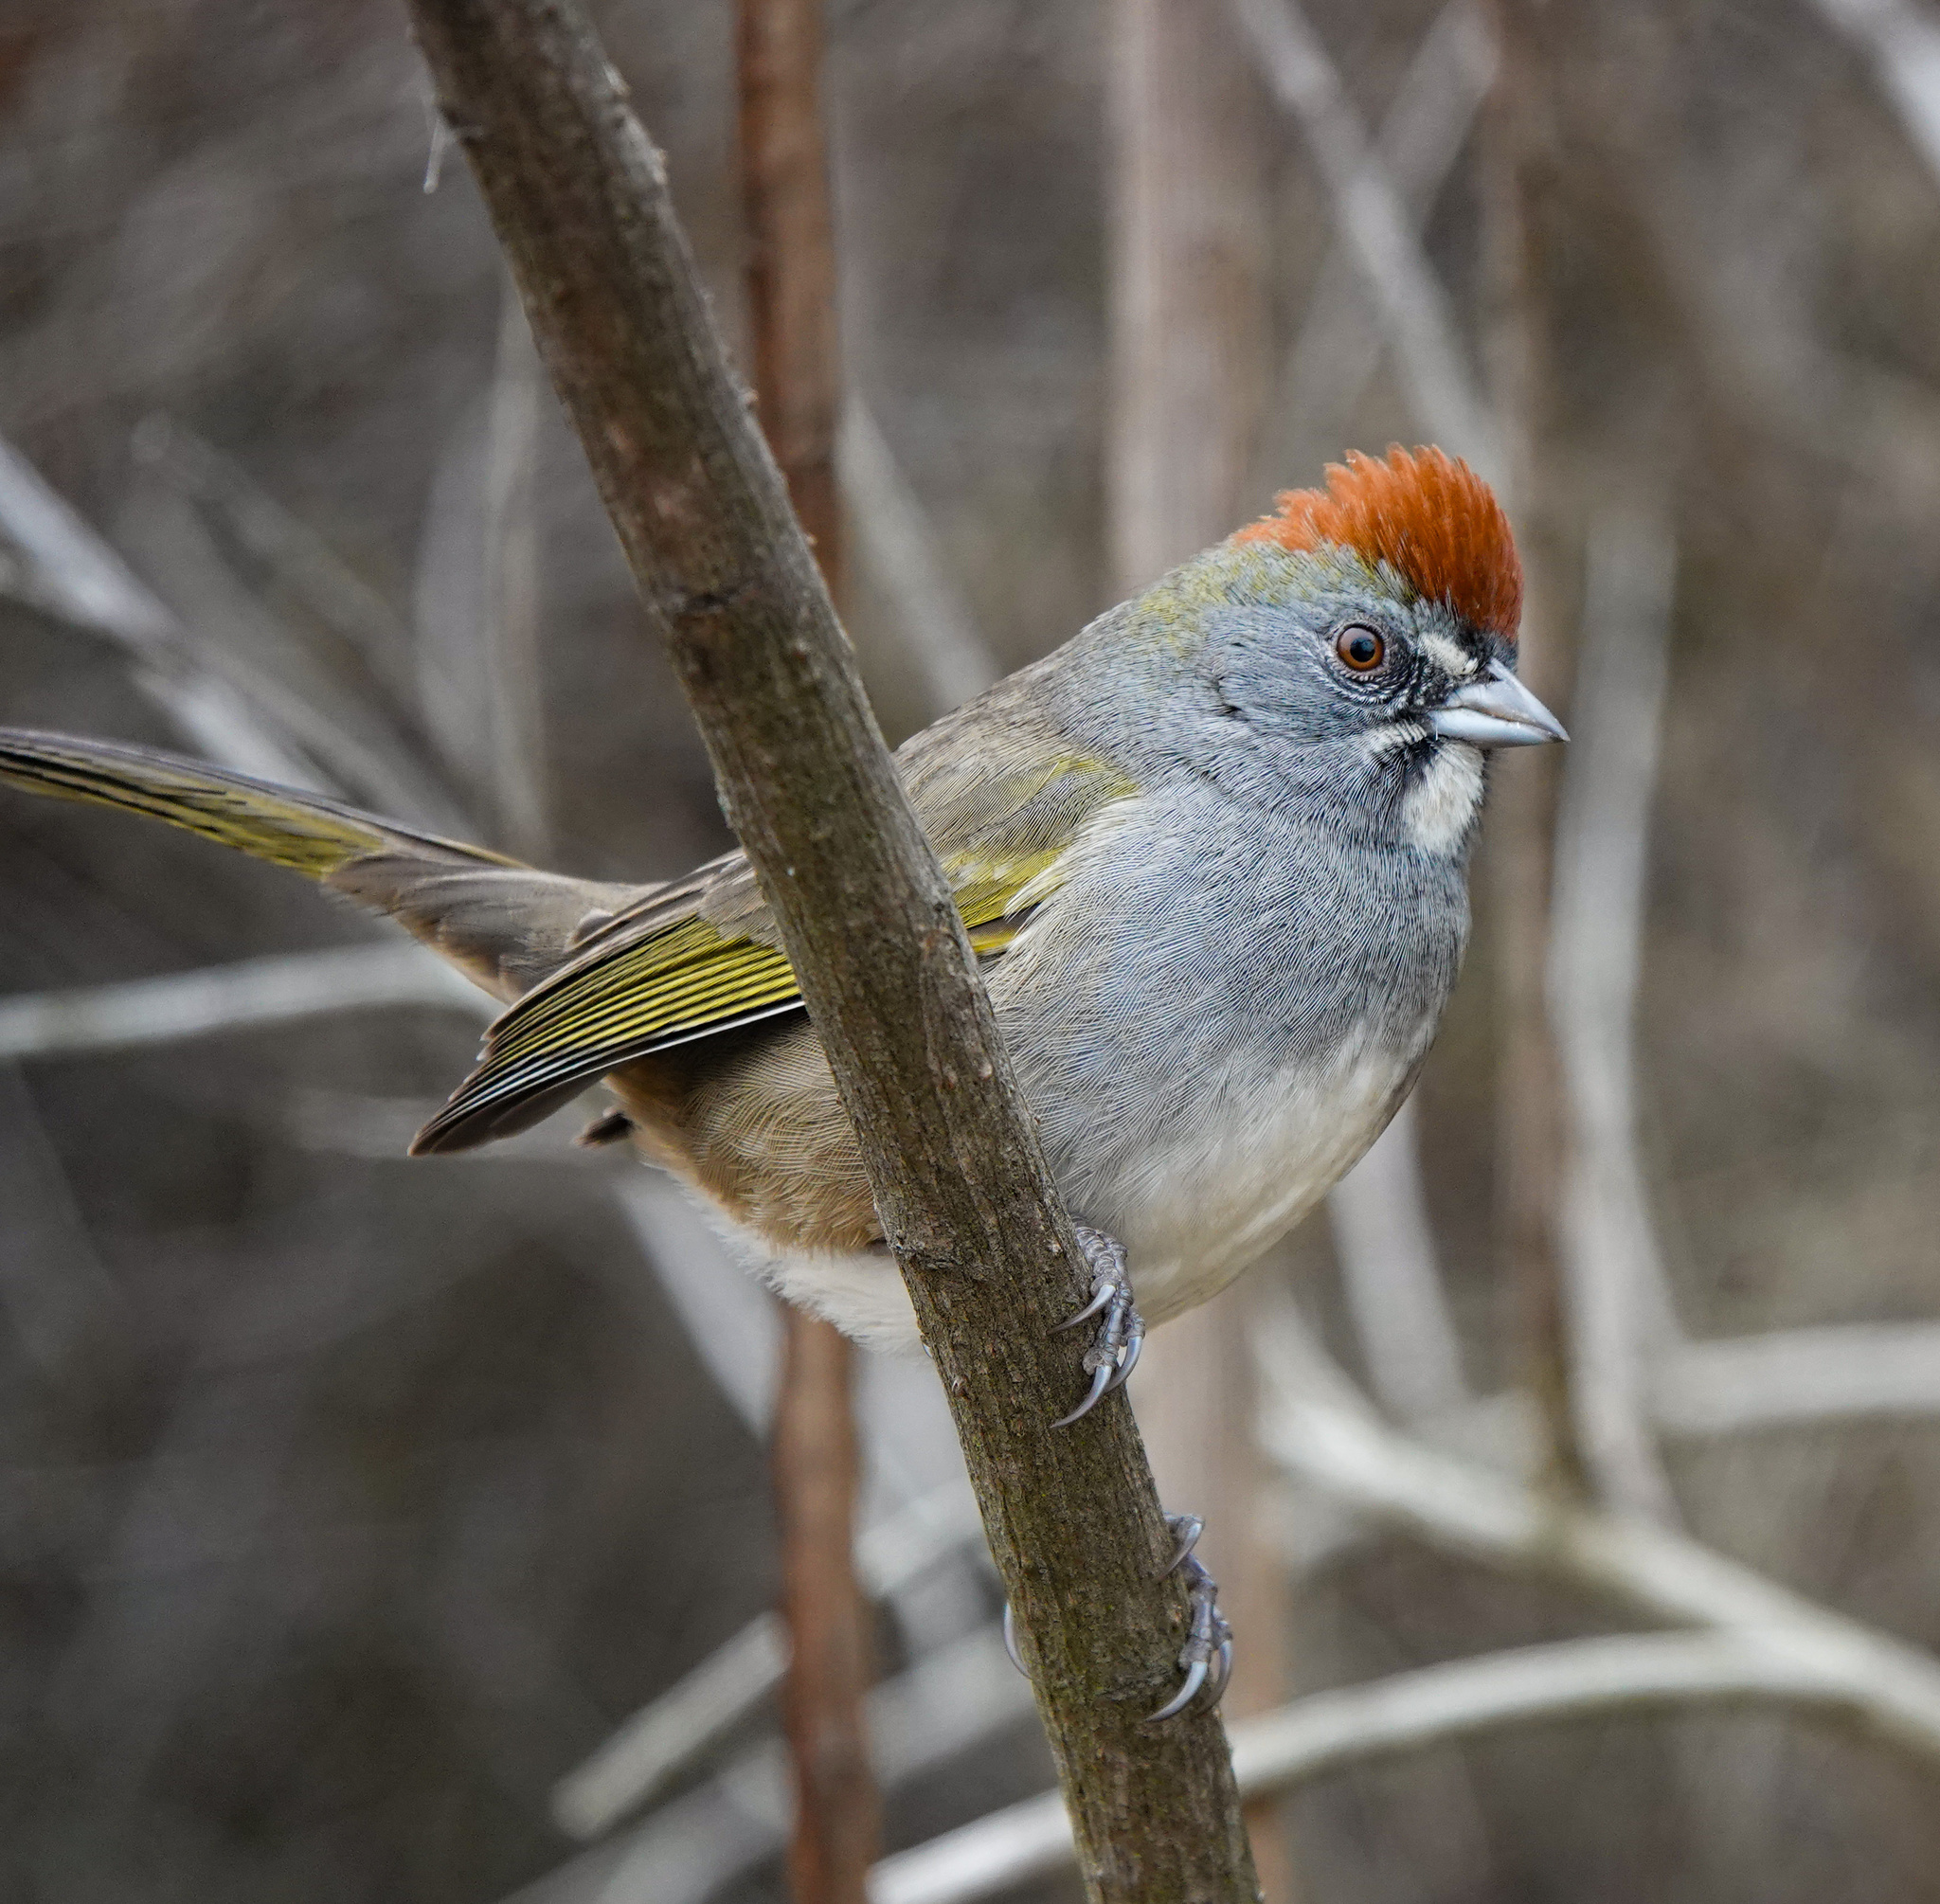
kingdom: Animalia
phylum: Chordata
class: Aves
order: Passeriformes
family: Passerellidae
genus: Pipilo
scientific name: Pipilo chlorurus
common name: Green-tailed towhee
